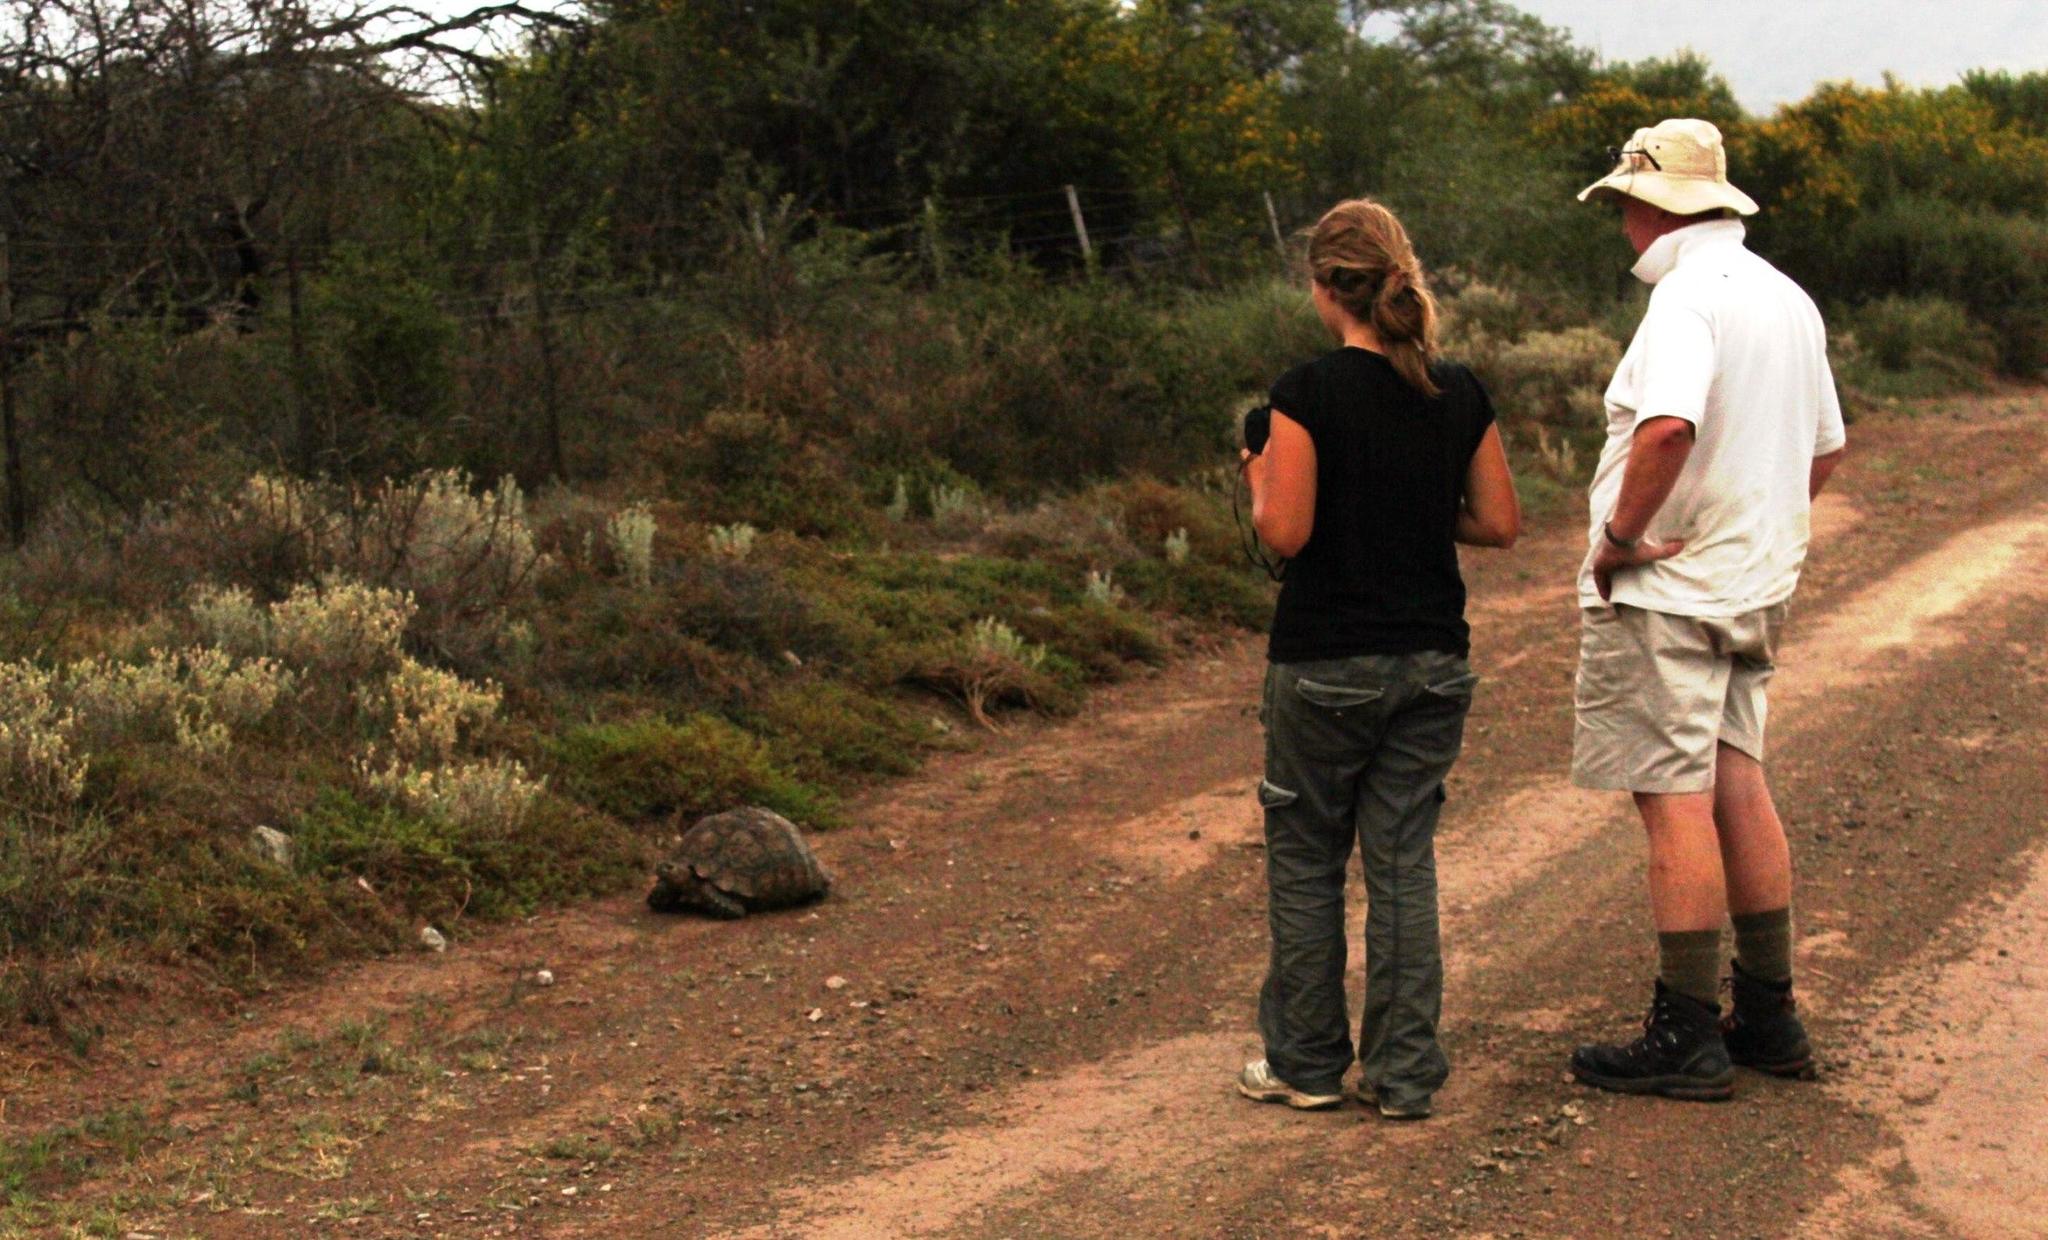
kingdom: Animalia
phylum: Chordata
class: Testudines
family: Testudinidae
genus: Stigmochelys
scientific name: Stigmochelys pardalis
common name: Leopard tortoise
